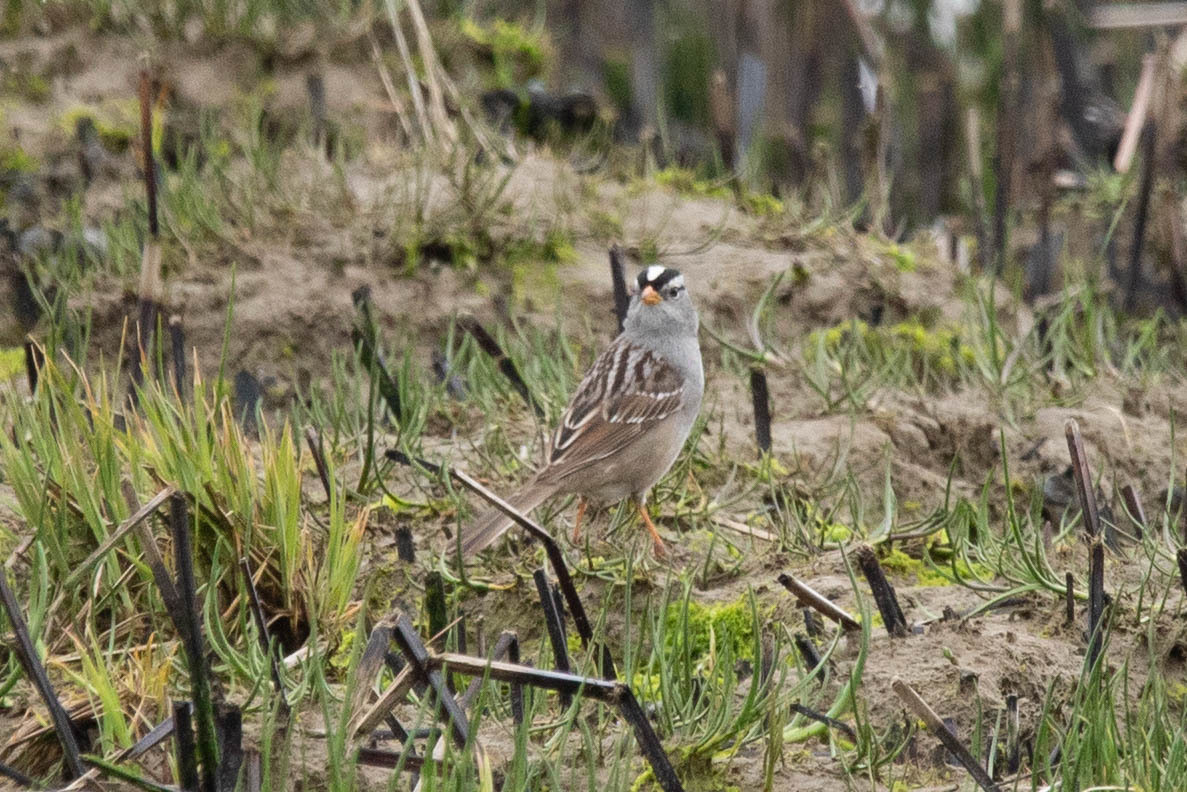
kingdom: Animalia
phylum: Chordata
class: Aves
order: Passeriformes
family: Passerellidae
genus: Zonotrichia
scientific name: Zonotrichia leucophrys
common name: White-crowned sparrow
